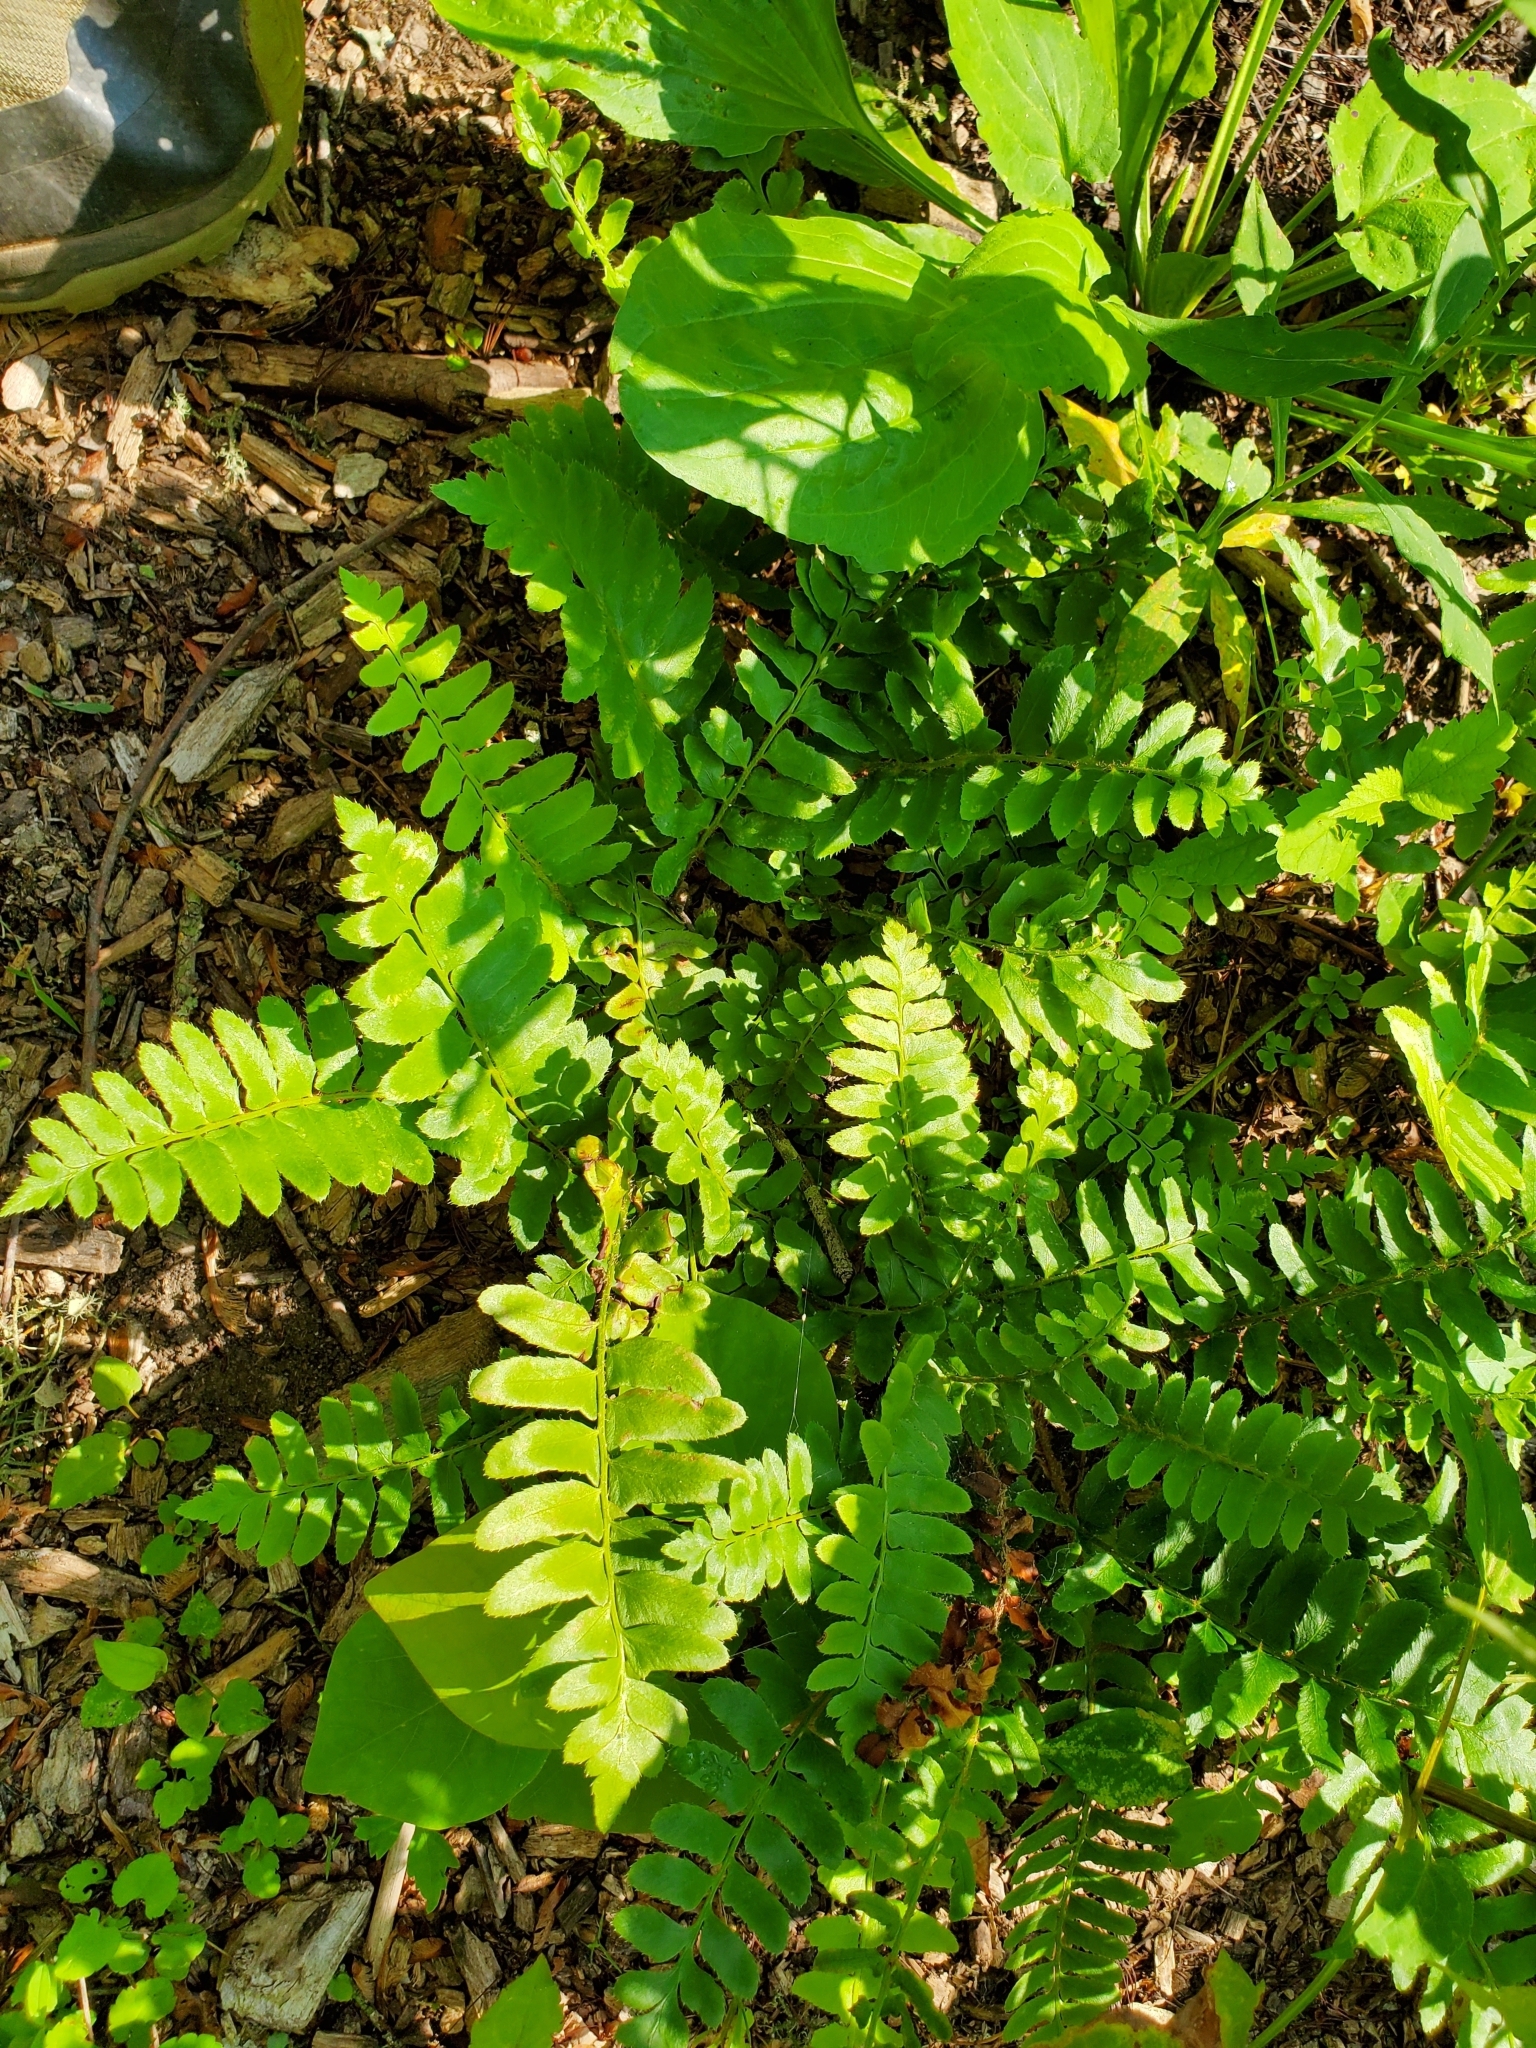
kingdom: Plantae
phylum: Tracheophyta
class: Polypodiopsida
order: Polypodiales
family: Dryopteridaceae
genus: Polystichum
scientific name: Polystichum acrostichoides
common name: Christmas fern
